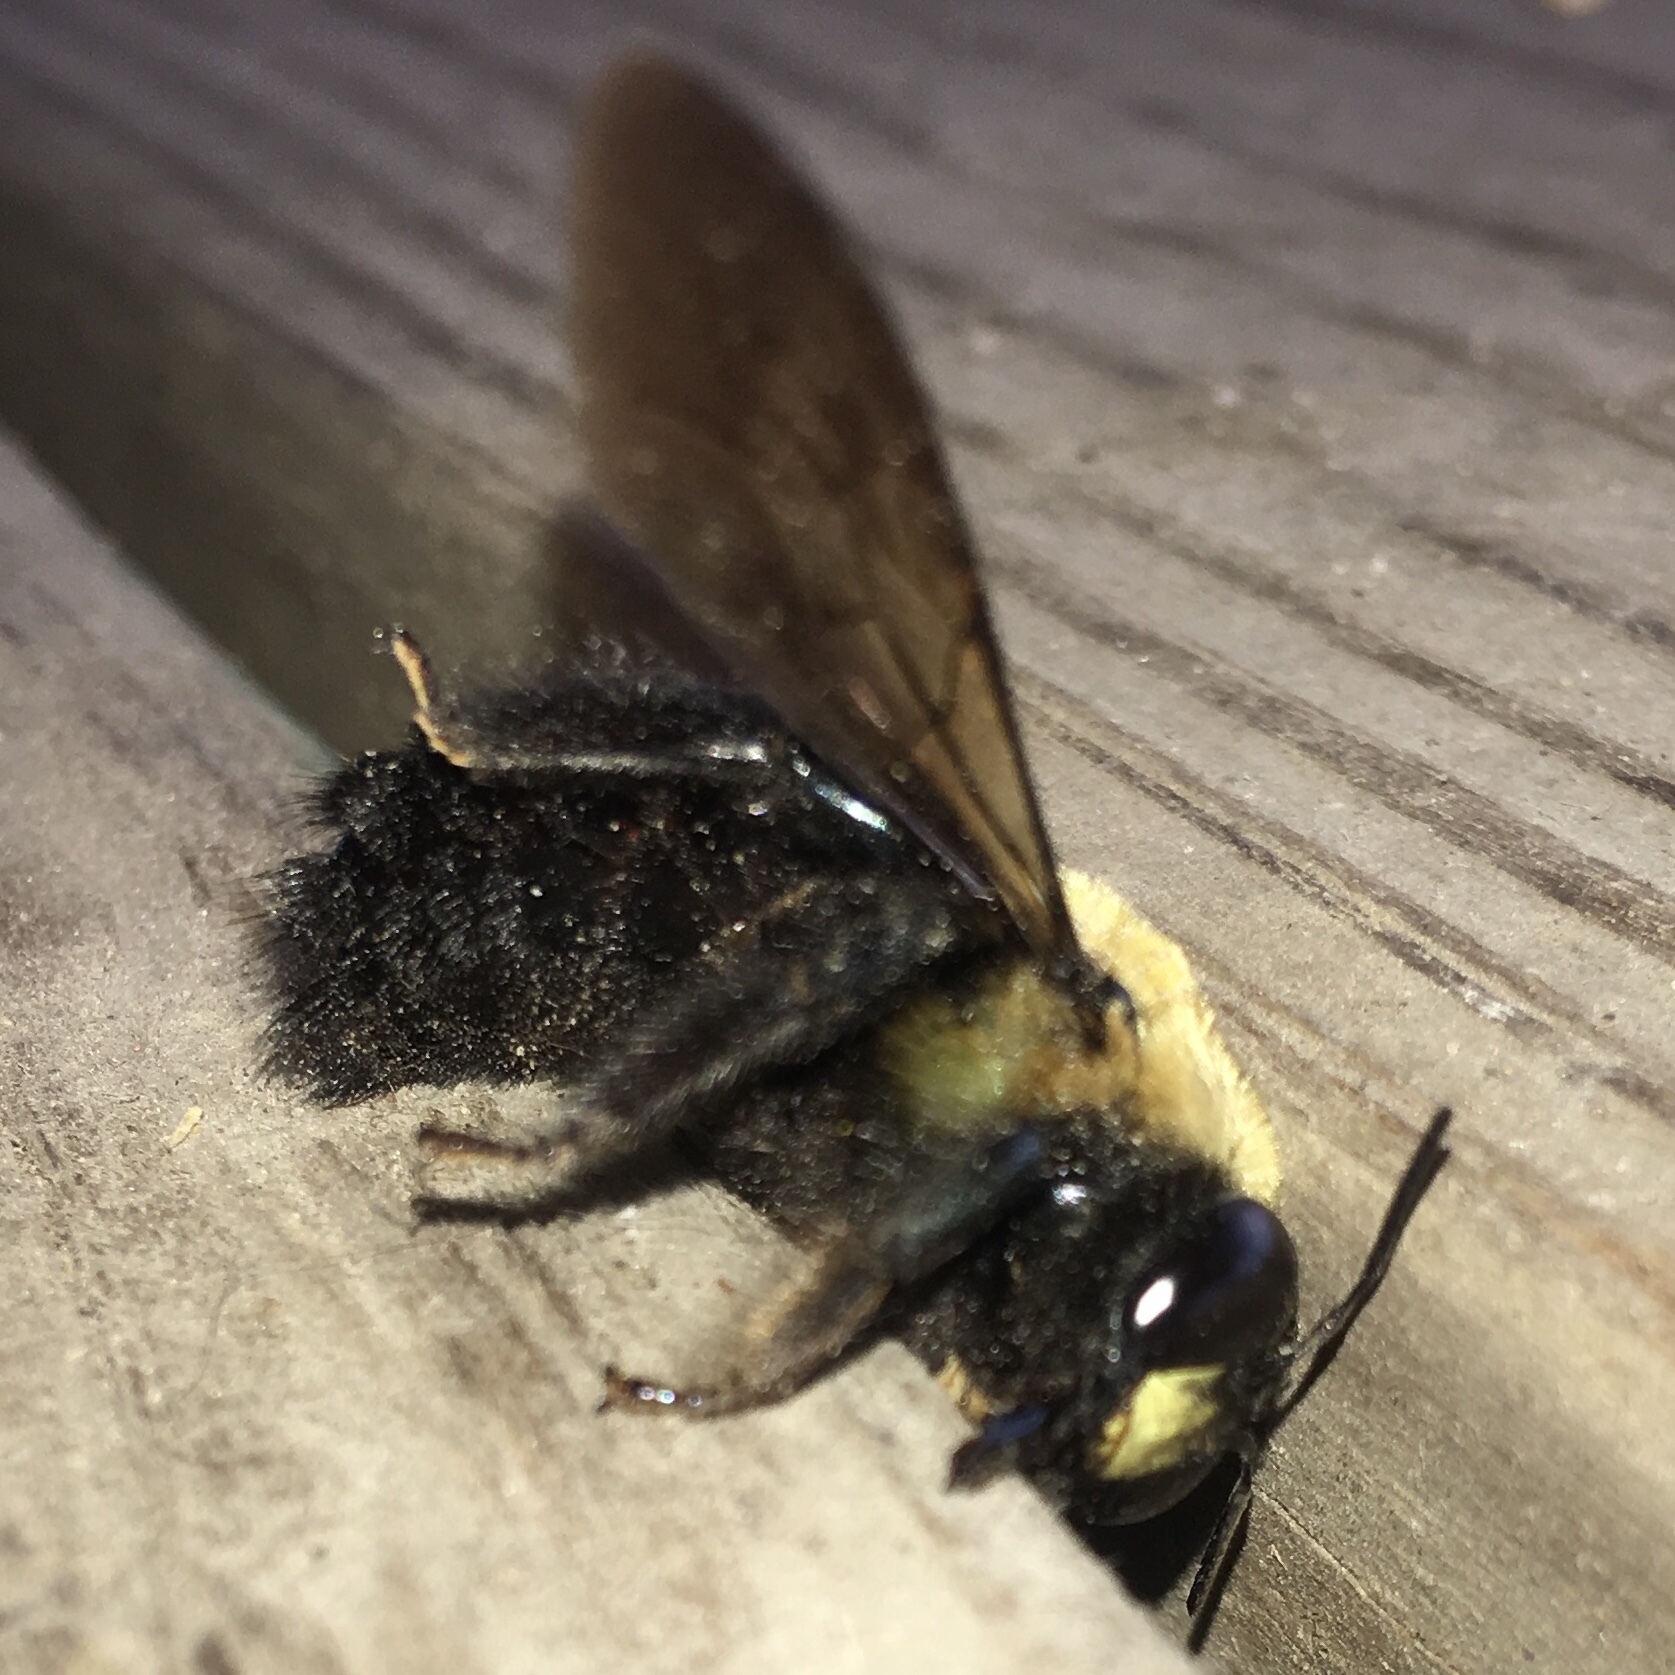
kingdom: Animalia
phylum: Arthropoda
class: Insecta
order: Hymenoptera
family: Apidae
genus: Xylocopa
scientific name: Xylocopa virginica
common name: Carpenter bee
